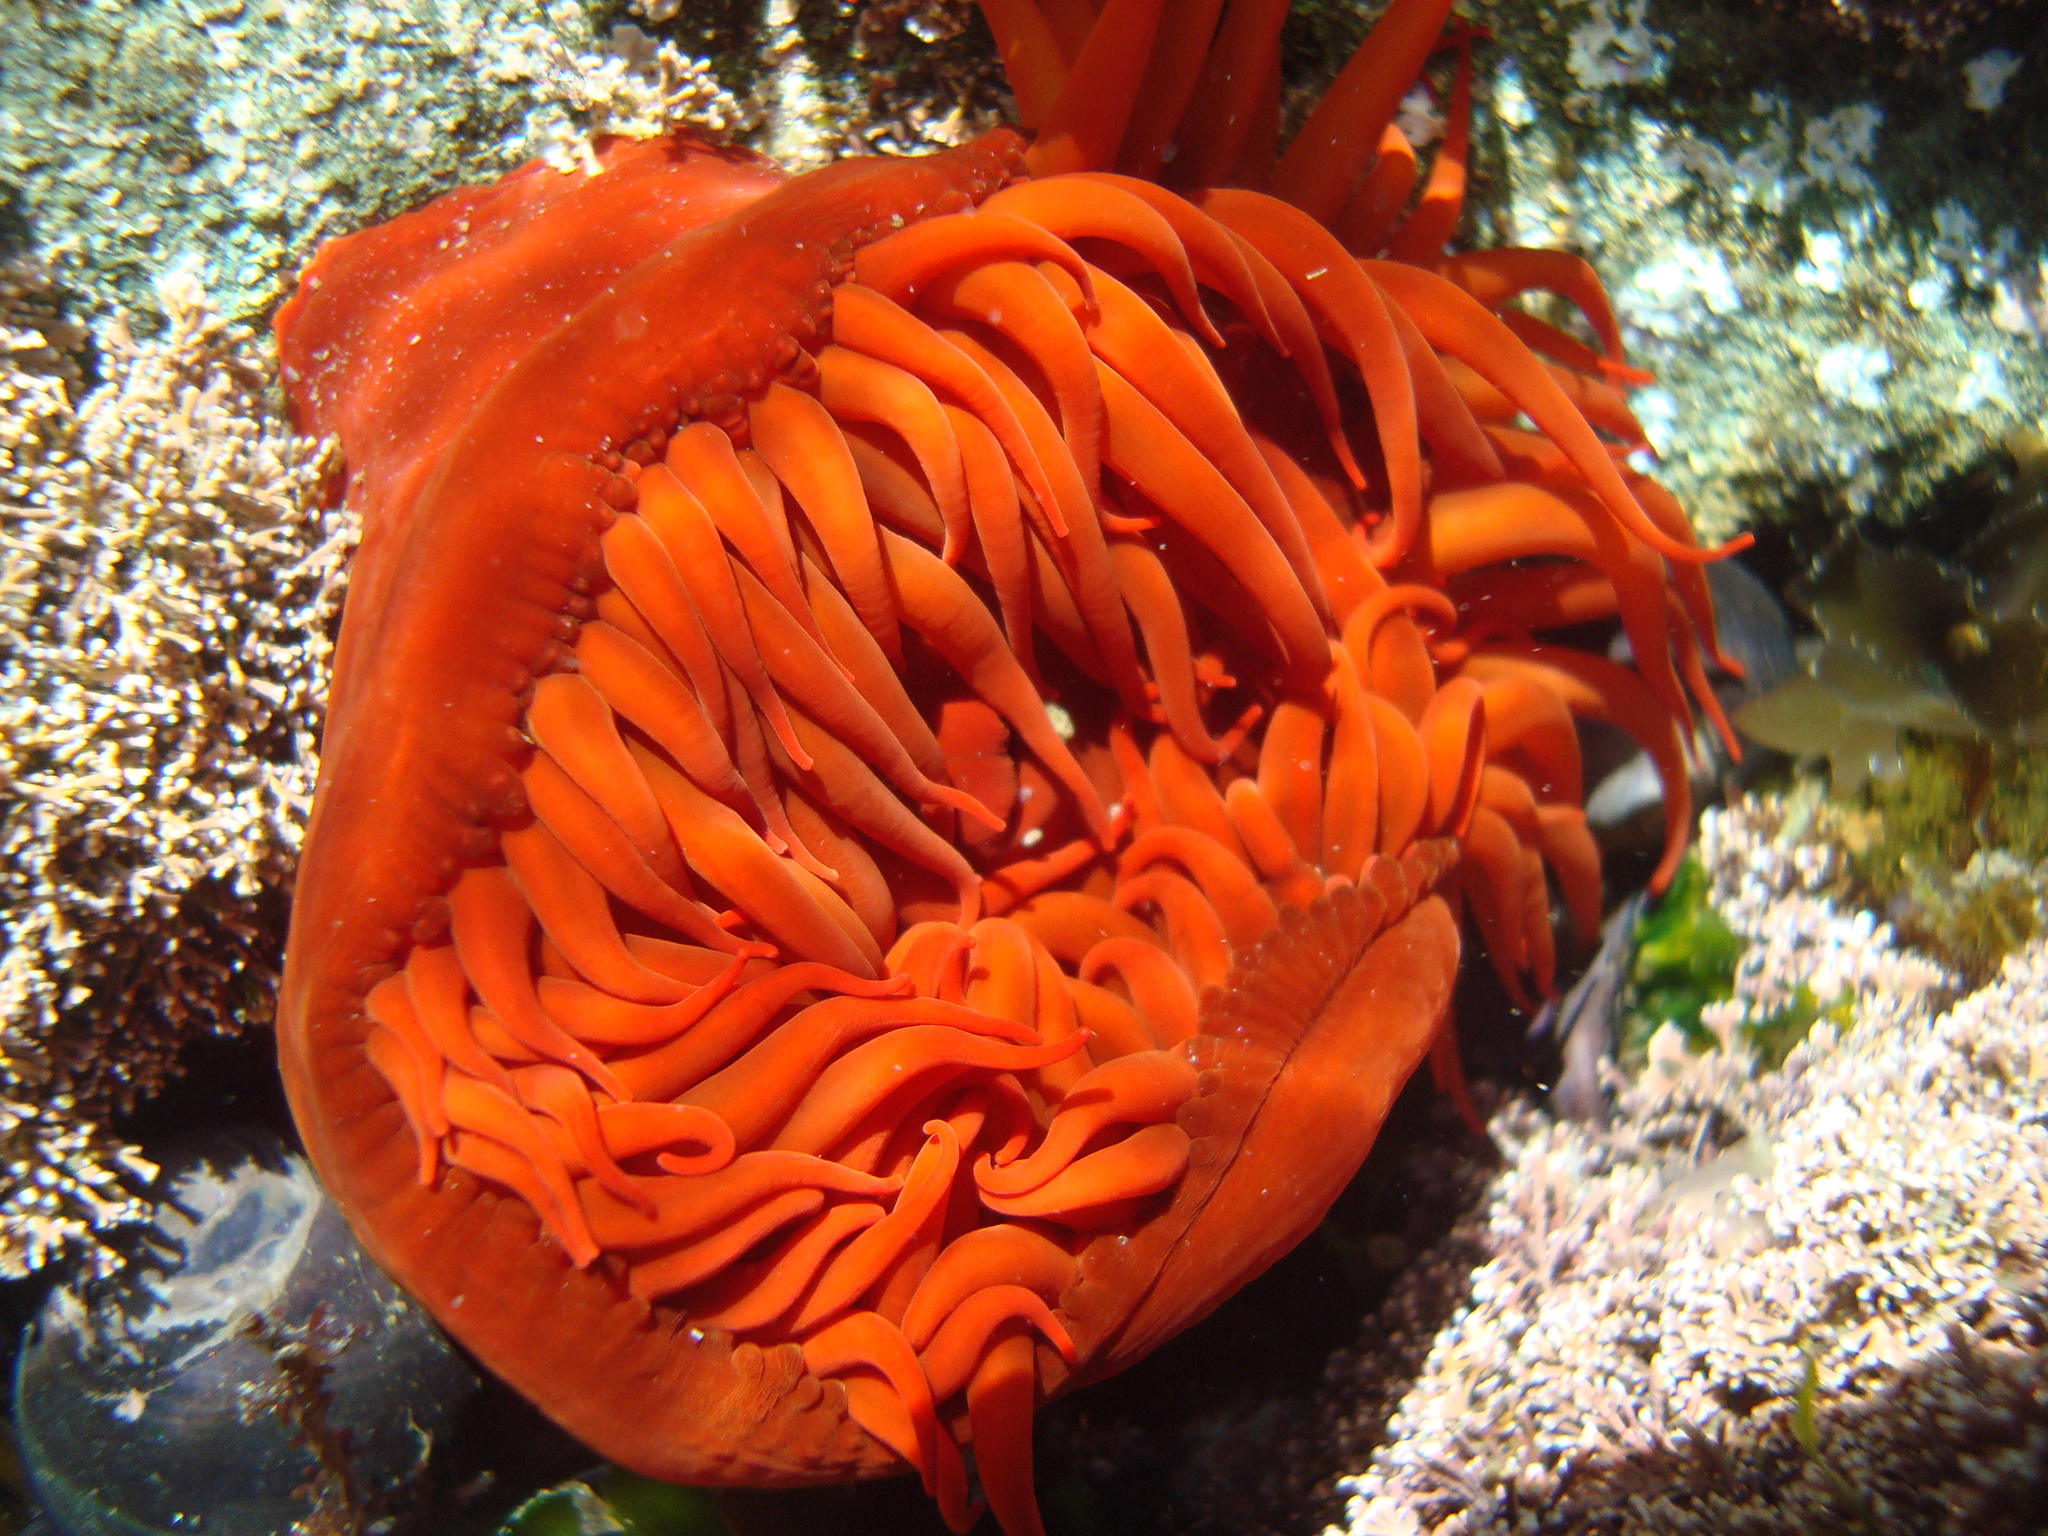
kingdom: Animalia
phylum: Cnidaria
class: Anthozoa
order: Actiniaria
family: Actiniidae
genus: Anemonia
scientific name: Anemonia alicemartinae
